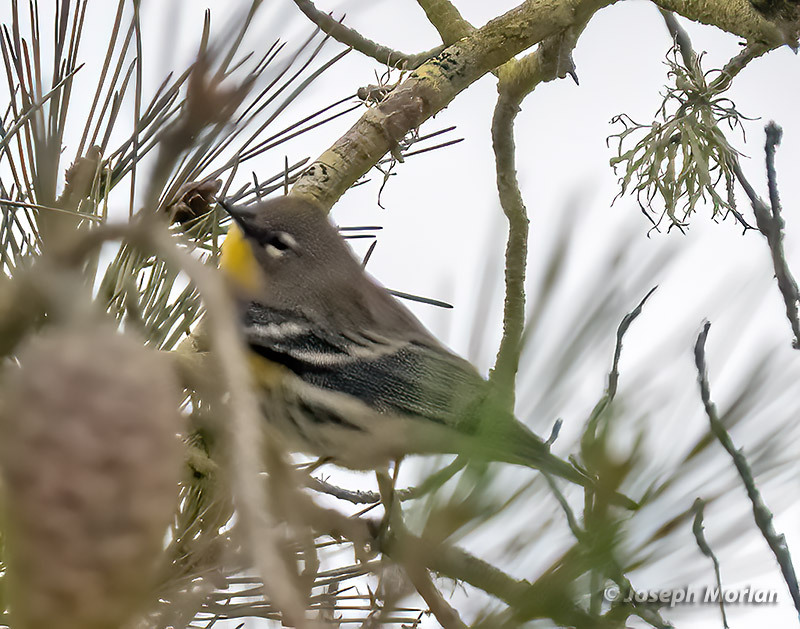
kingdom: Animalia
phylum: Chordata
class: Aves
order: Passeriformes
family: Parulidae
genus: Setophaga
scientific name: Setophaga coronata
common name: Myrtle warbler
